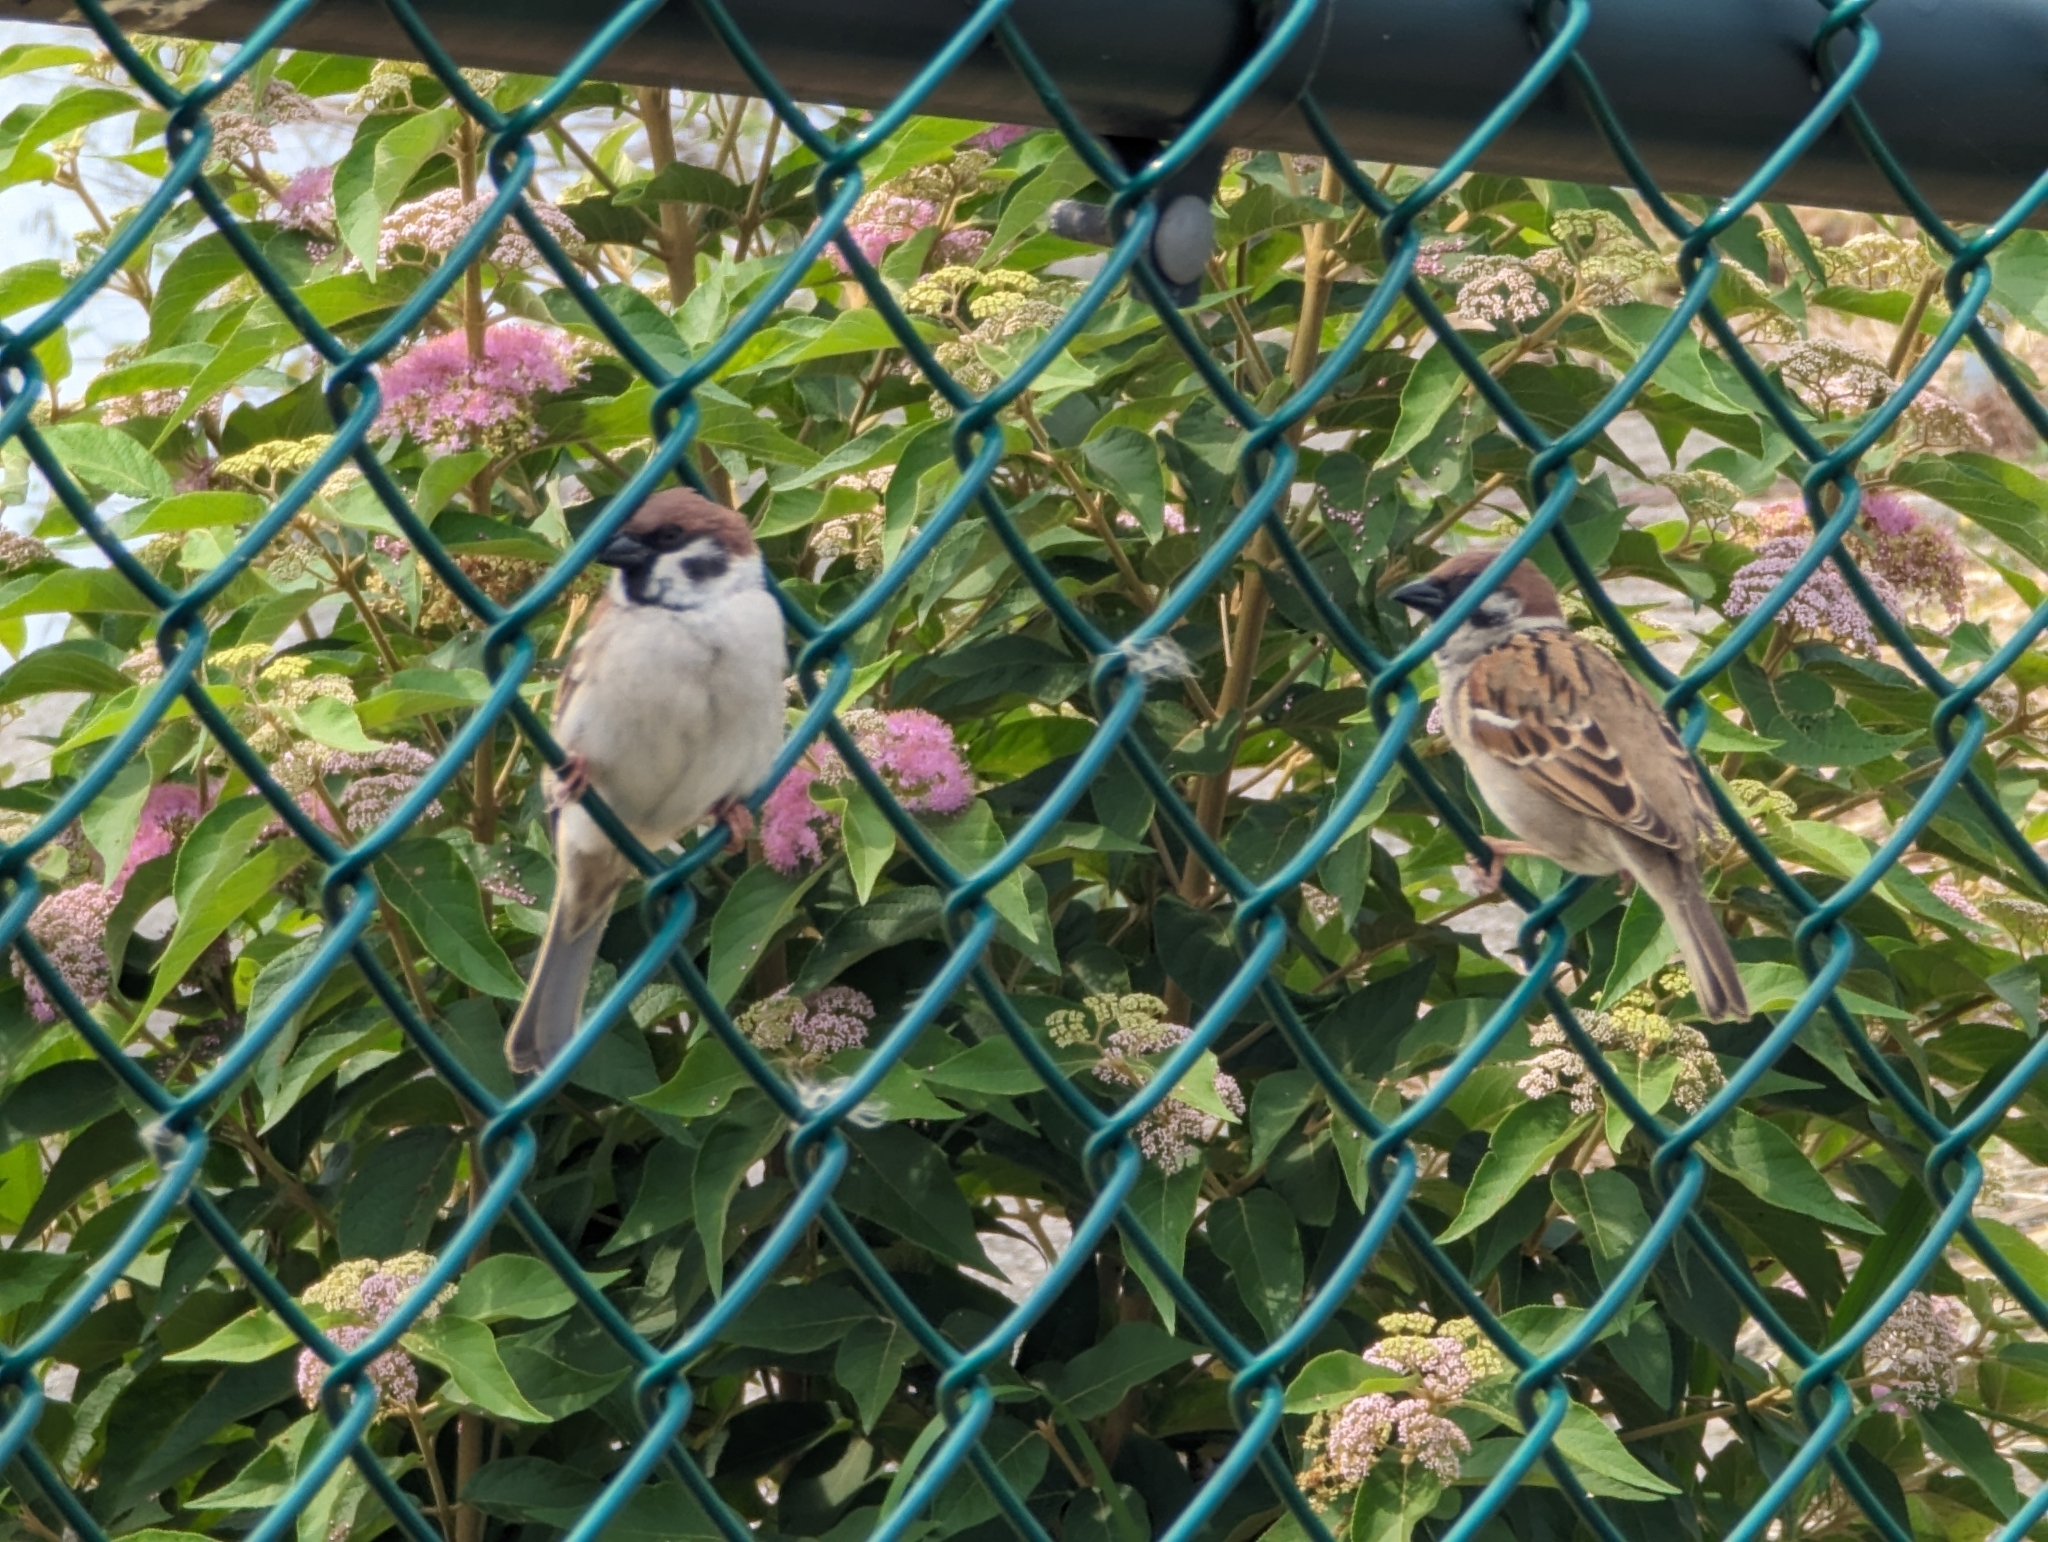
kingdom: Animalia
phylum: Chordata
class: Aves
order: Passeriformes
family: Passeridae
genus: Passer
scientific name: Passer montanus
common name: Eurasian tree sparrow
